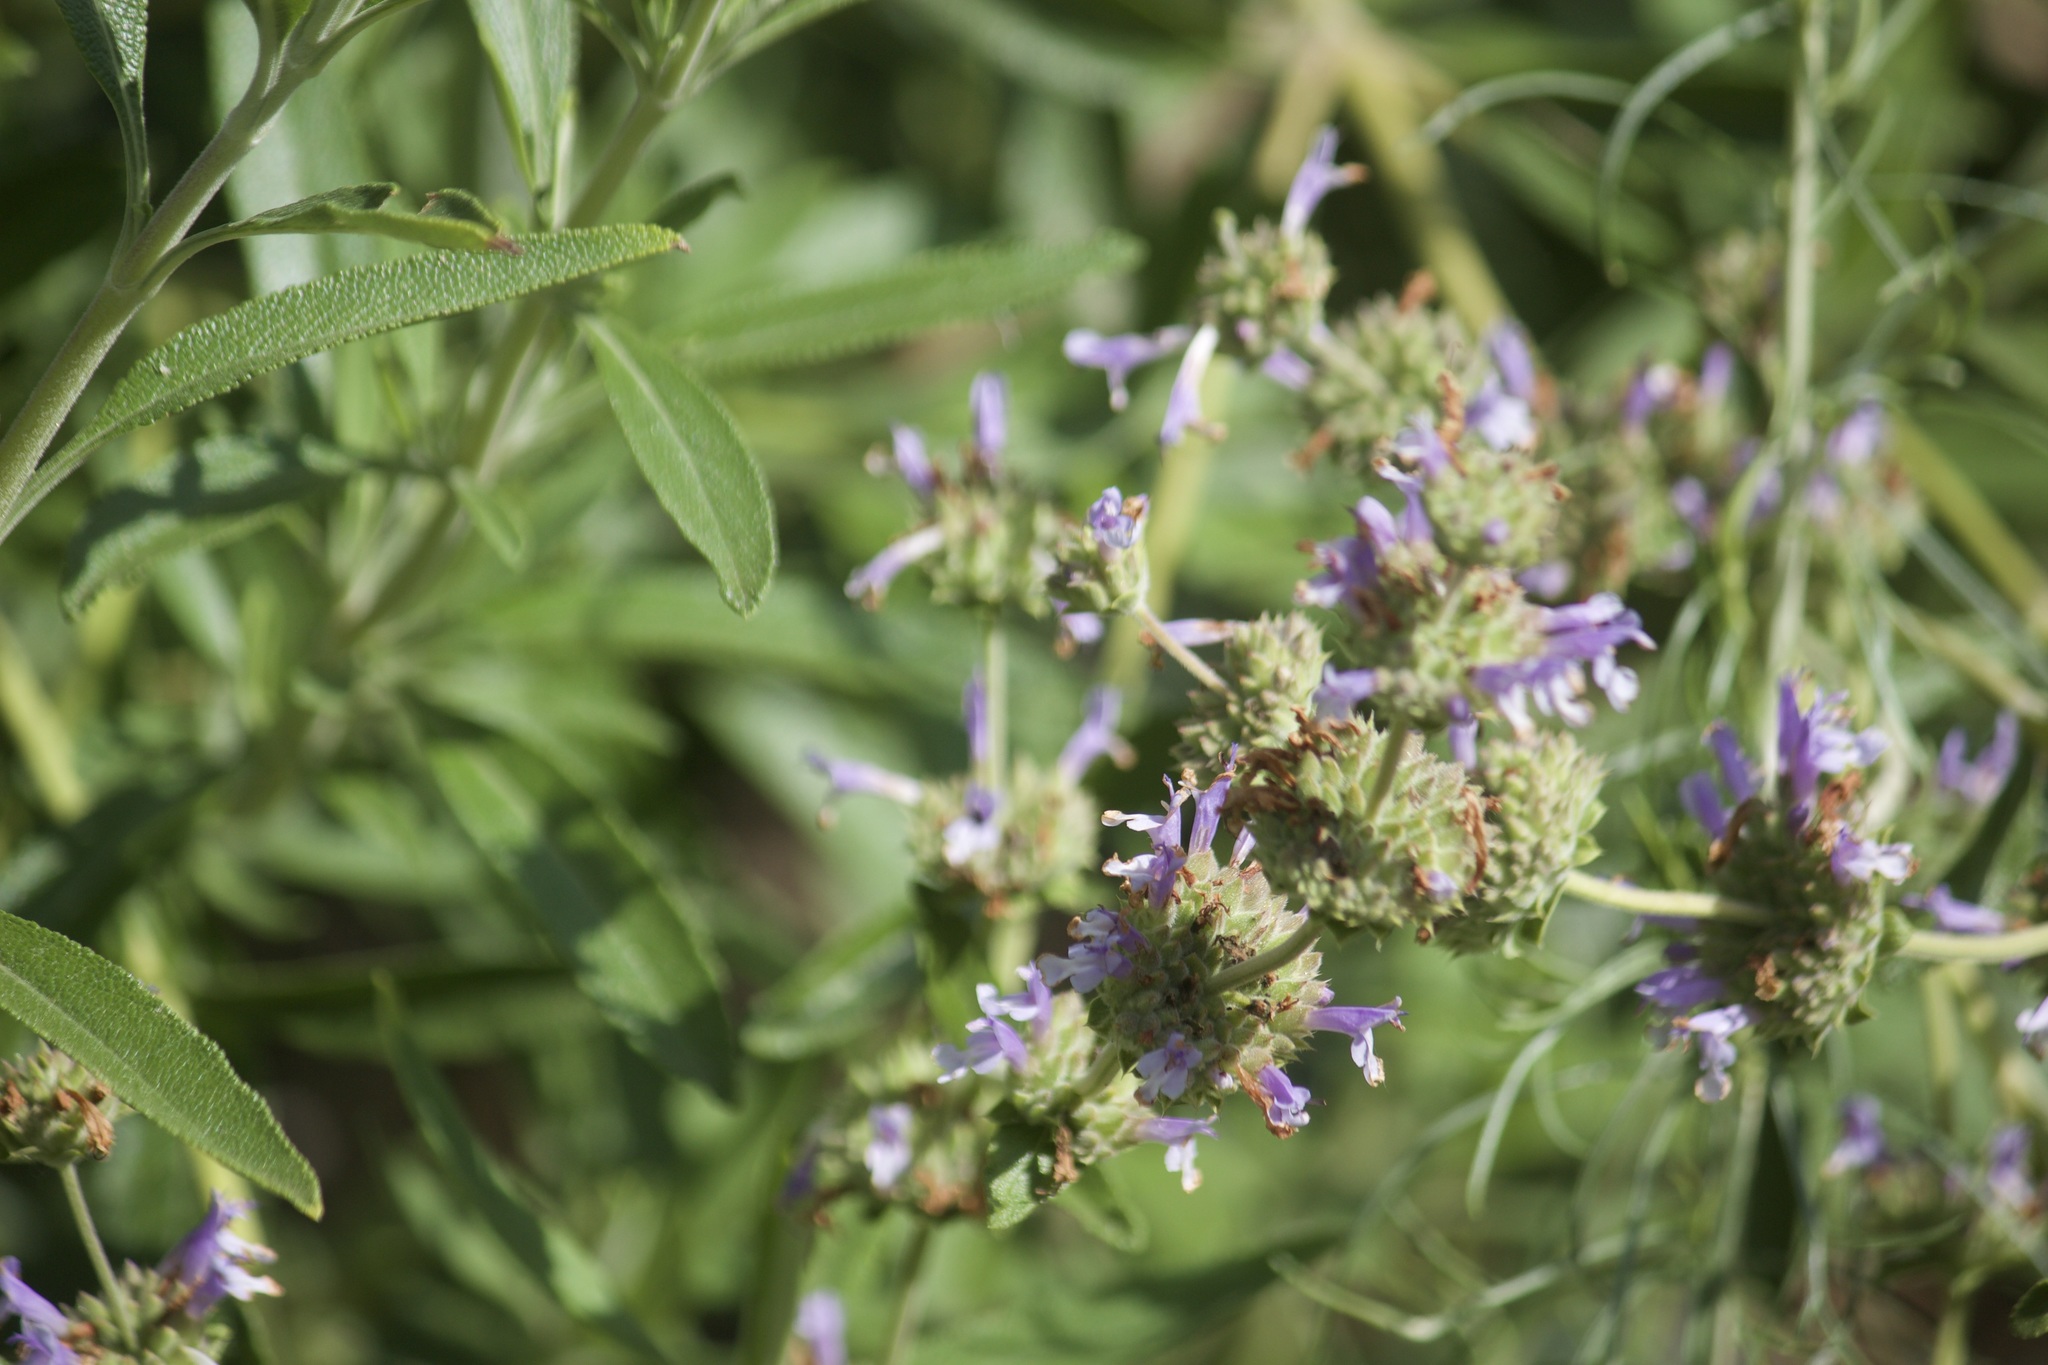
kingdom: Plantae
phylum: Tracheophyta
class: Magnoliopsida
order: Lamiales
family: Lamiaceae
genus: Salvia
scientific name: Salvia mellifera
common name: Black sage
